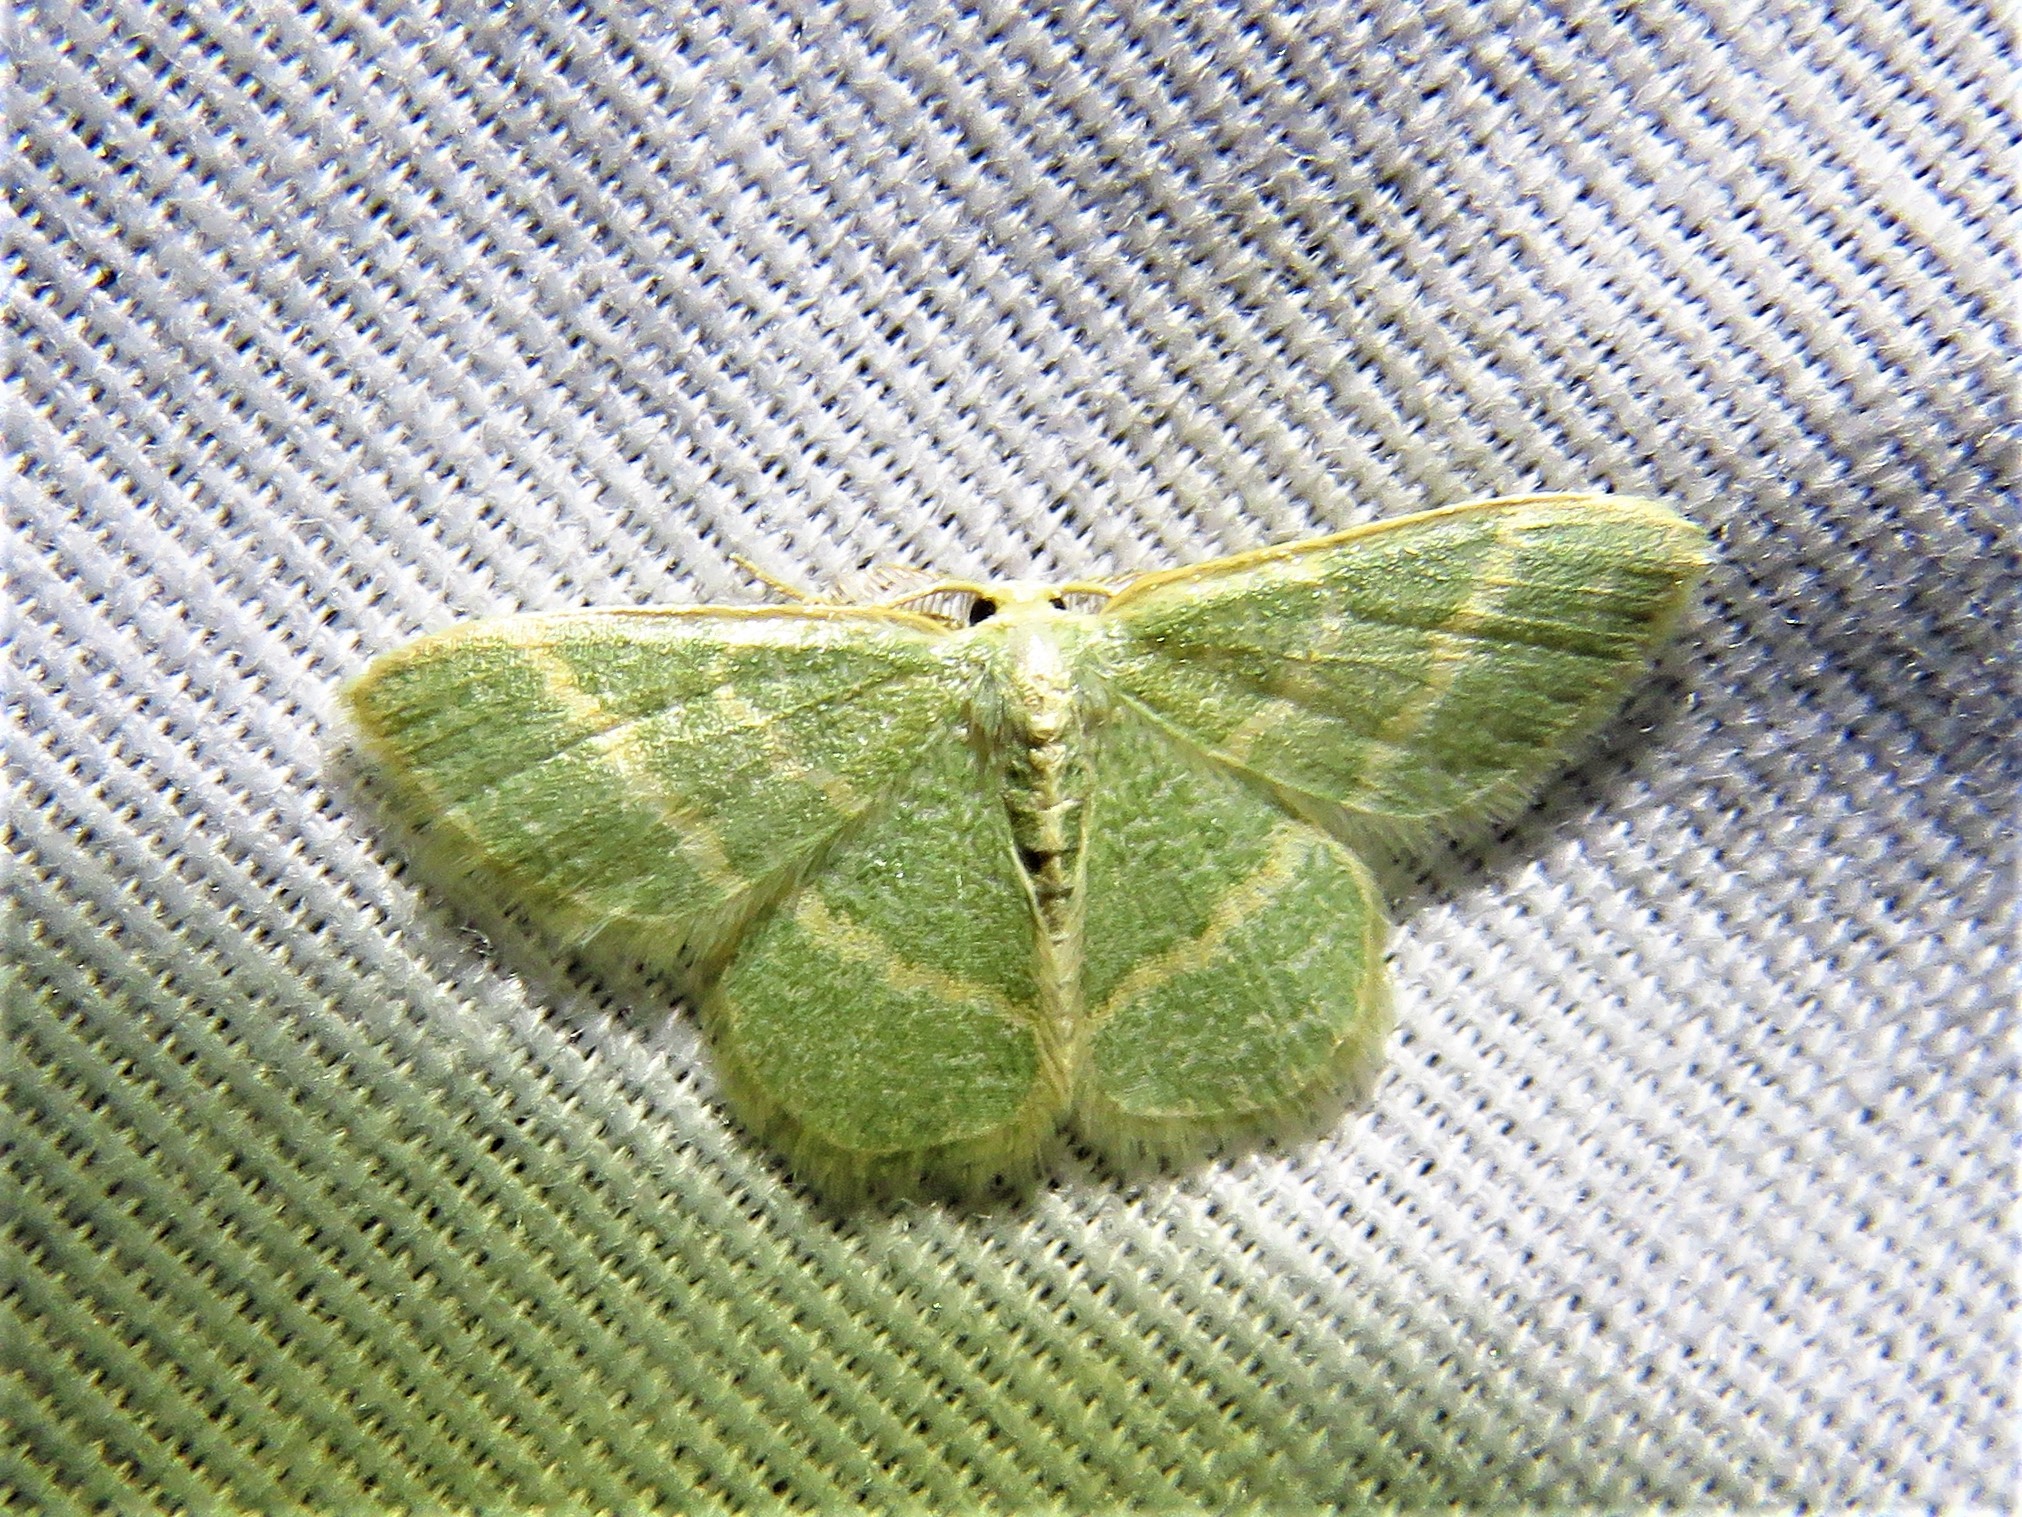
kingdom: Animalia
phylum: Arthropoda
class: Insecta
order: Lepidoptera
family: Geometridae
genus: Chlorochlamys
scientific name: Chlorochlamys chloroleucaria
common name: Blackberry looper
